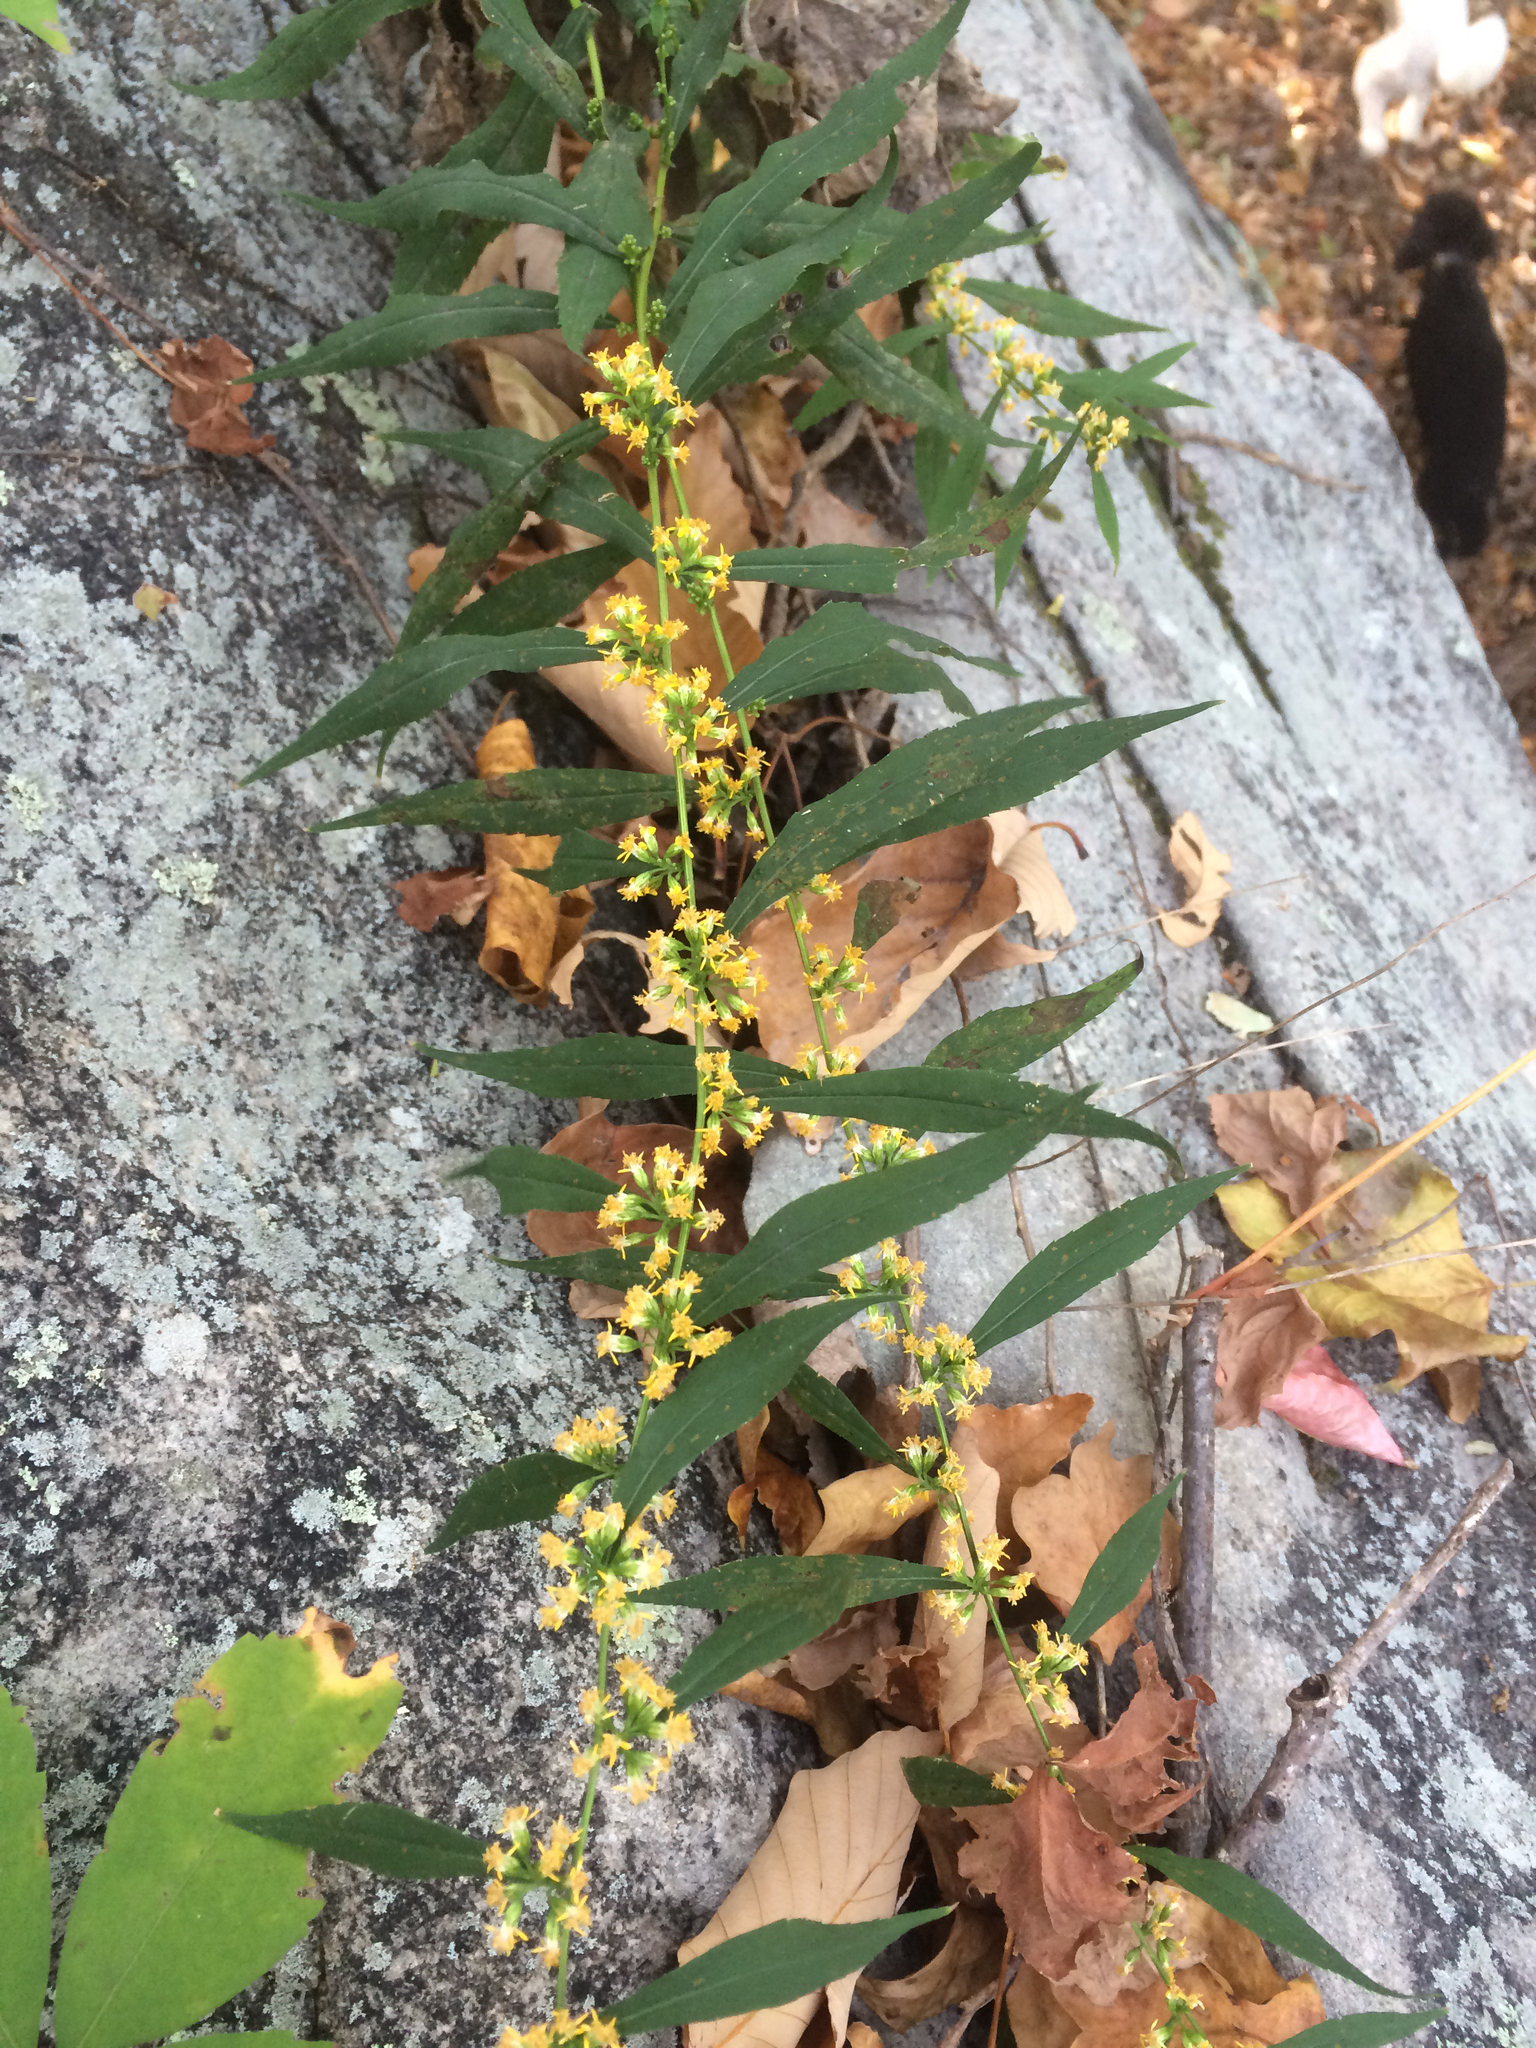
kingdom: Plantae
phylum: Tracheophyta
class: Magnoliopsida
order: Asterales
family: Asteraceae
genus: Solidago
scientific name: Solidago caesia
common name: Woodland goldenrod
